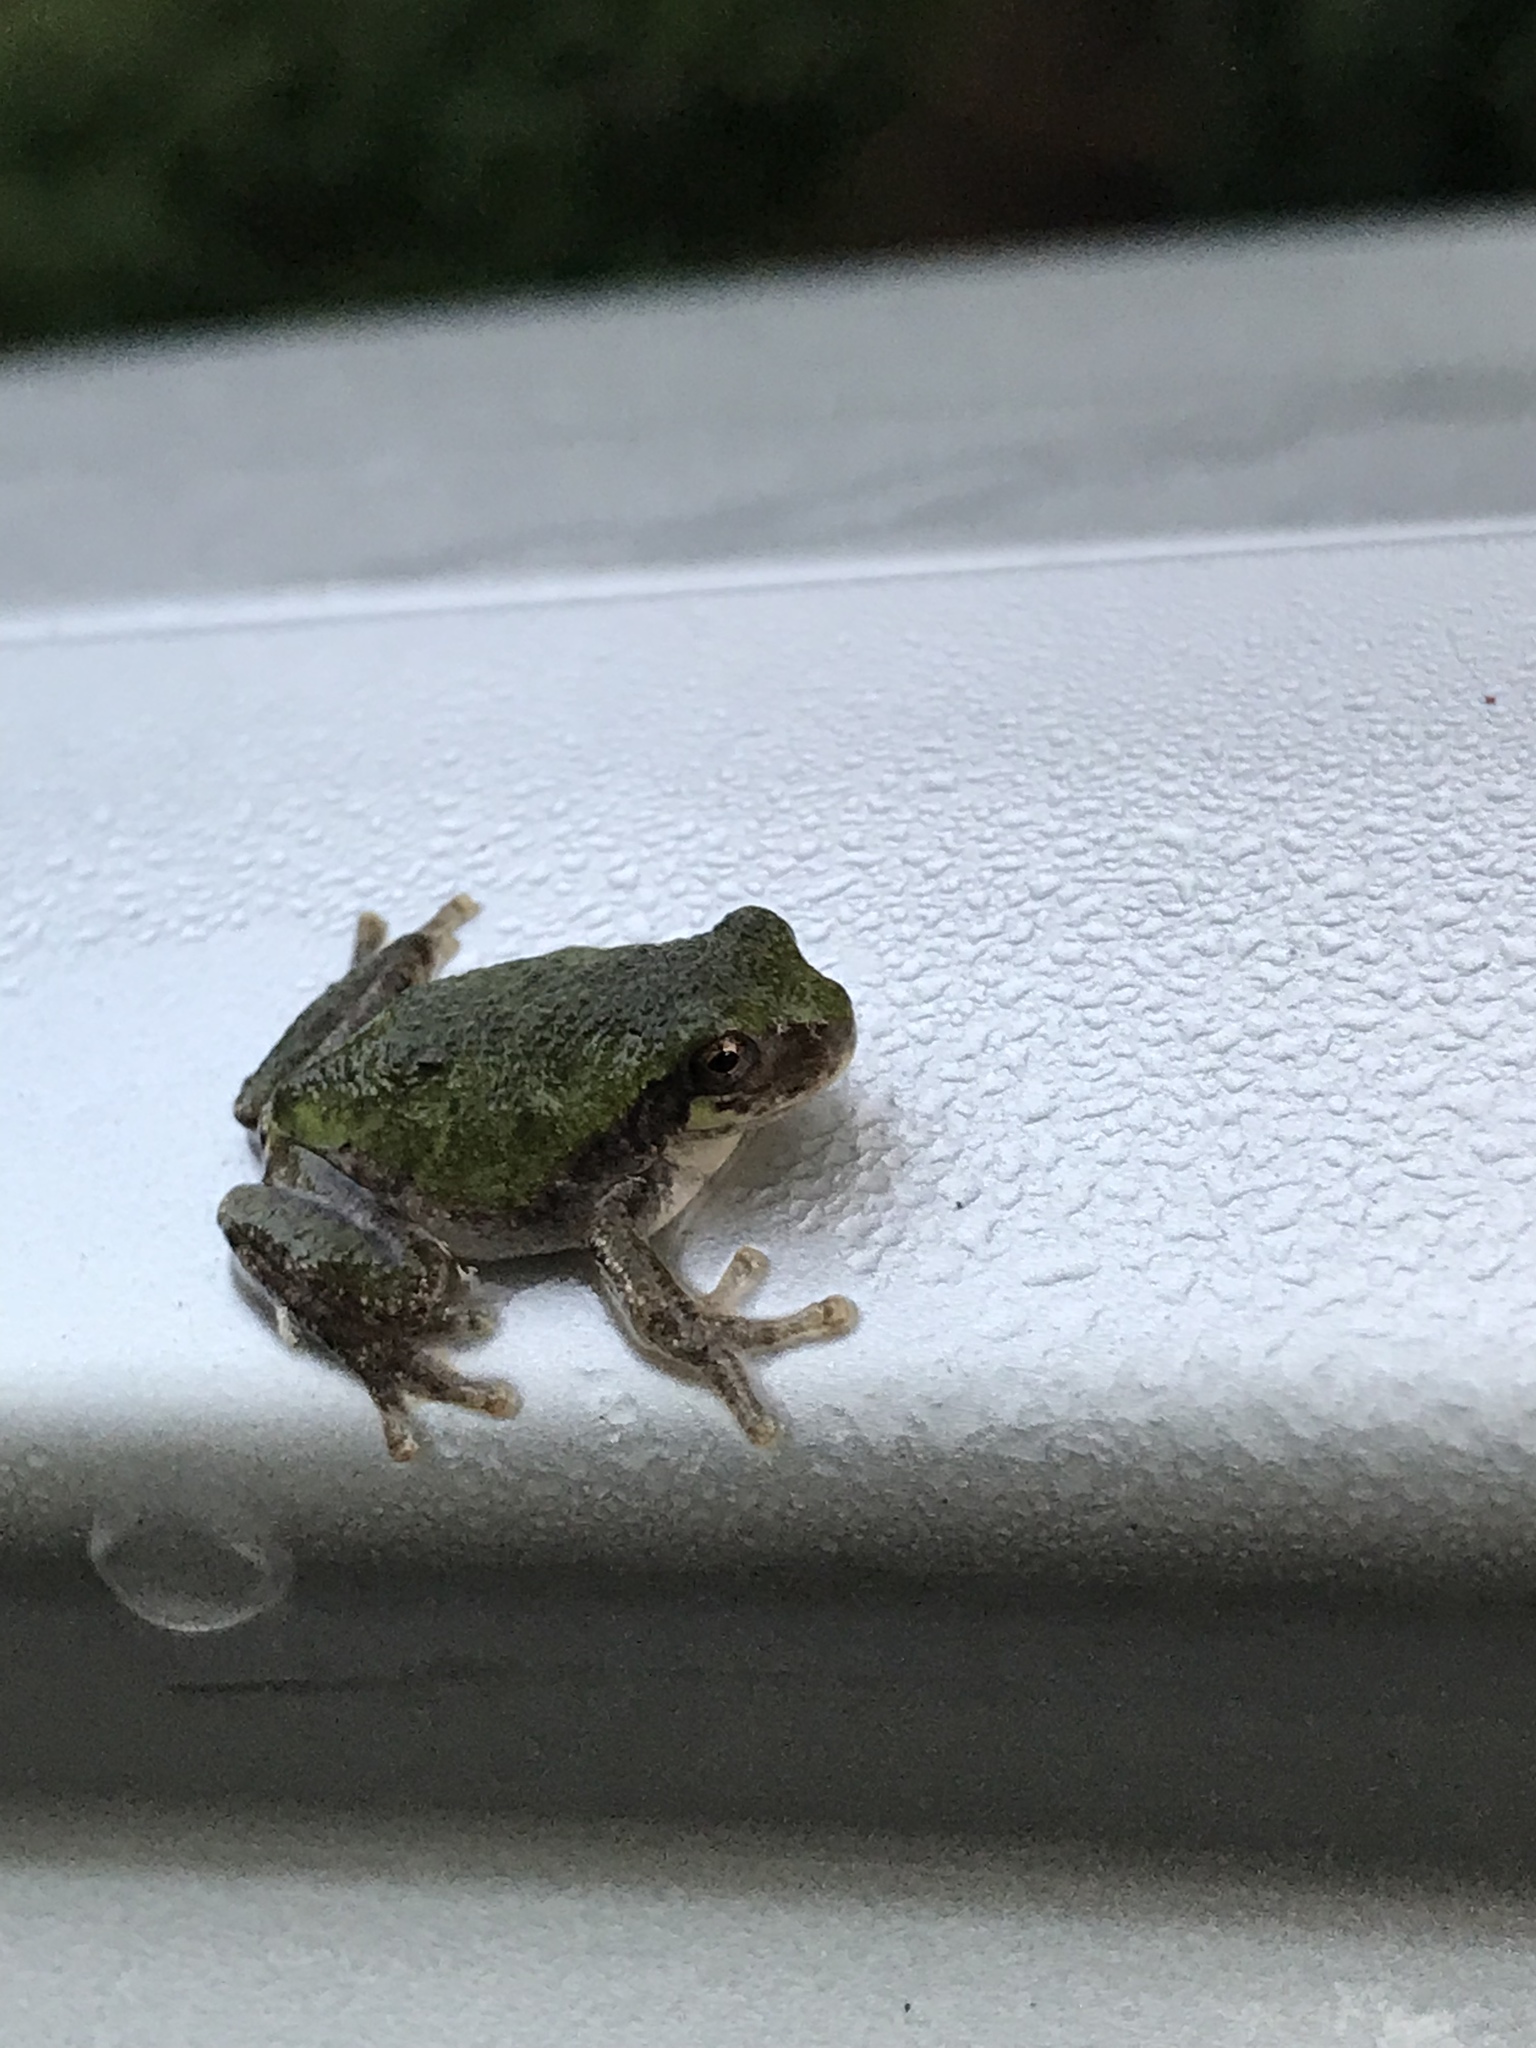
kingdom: Animalia
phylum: Chordata
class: Amphibia
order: Anura
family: Hylidae
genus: Hyla
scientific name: Hyla
